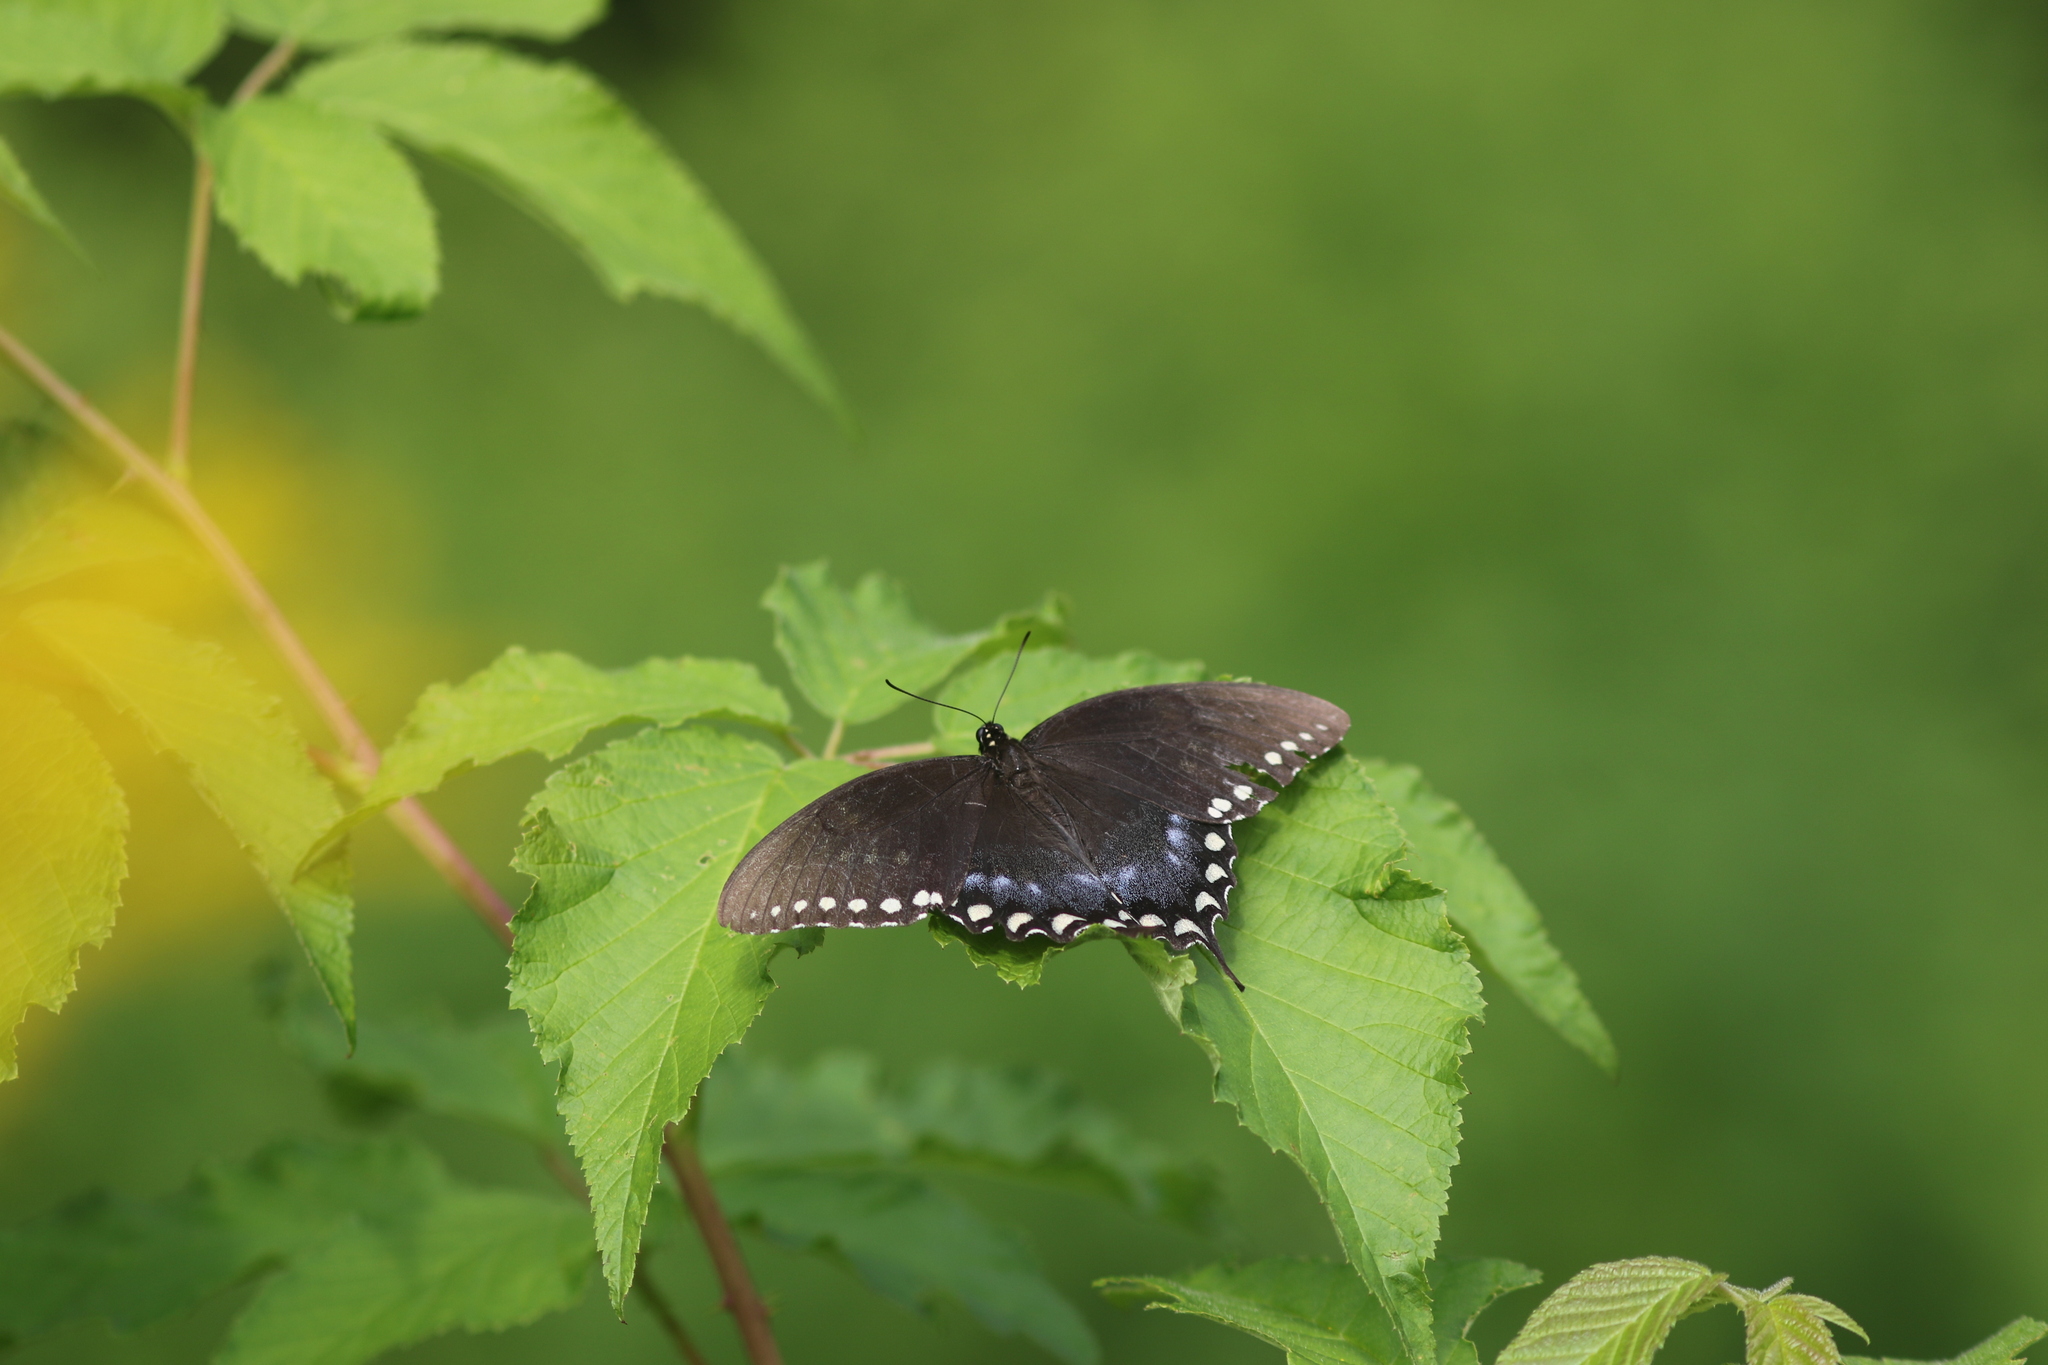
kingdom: Animalia
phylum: Arthropoda
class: Insecta
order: Lepidoptera
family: Papilionidae
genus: Papilio
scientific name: Papilio troilus
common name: Spicebush swallowtail
